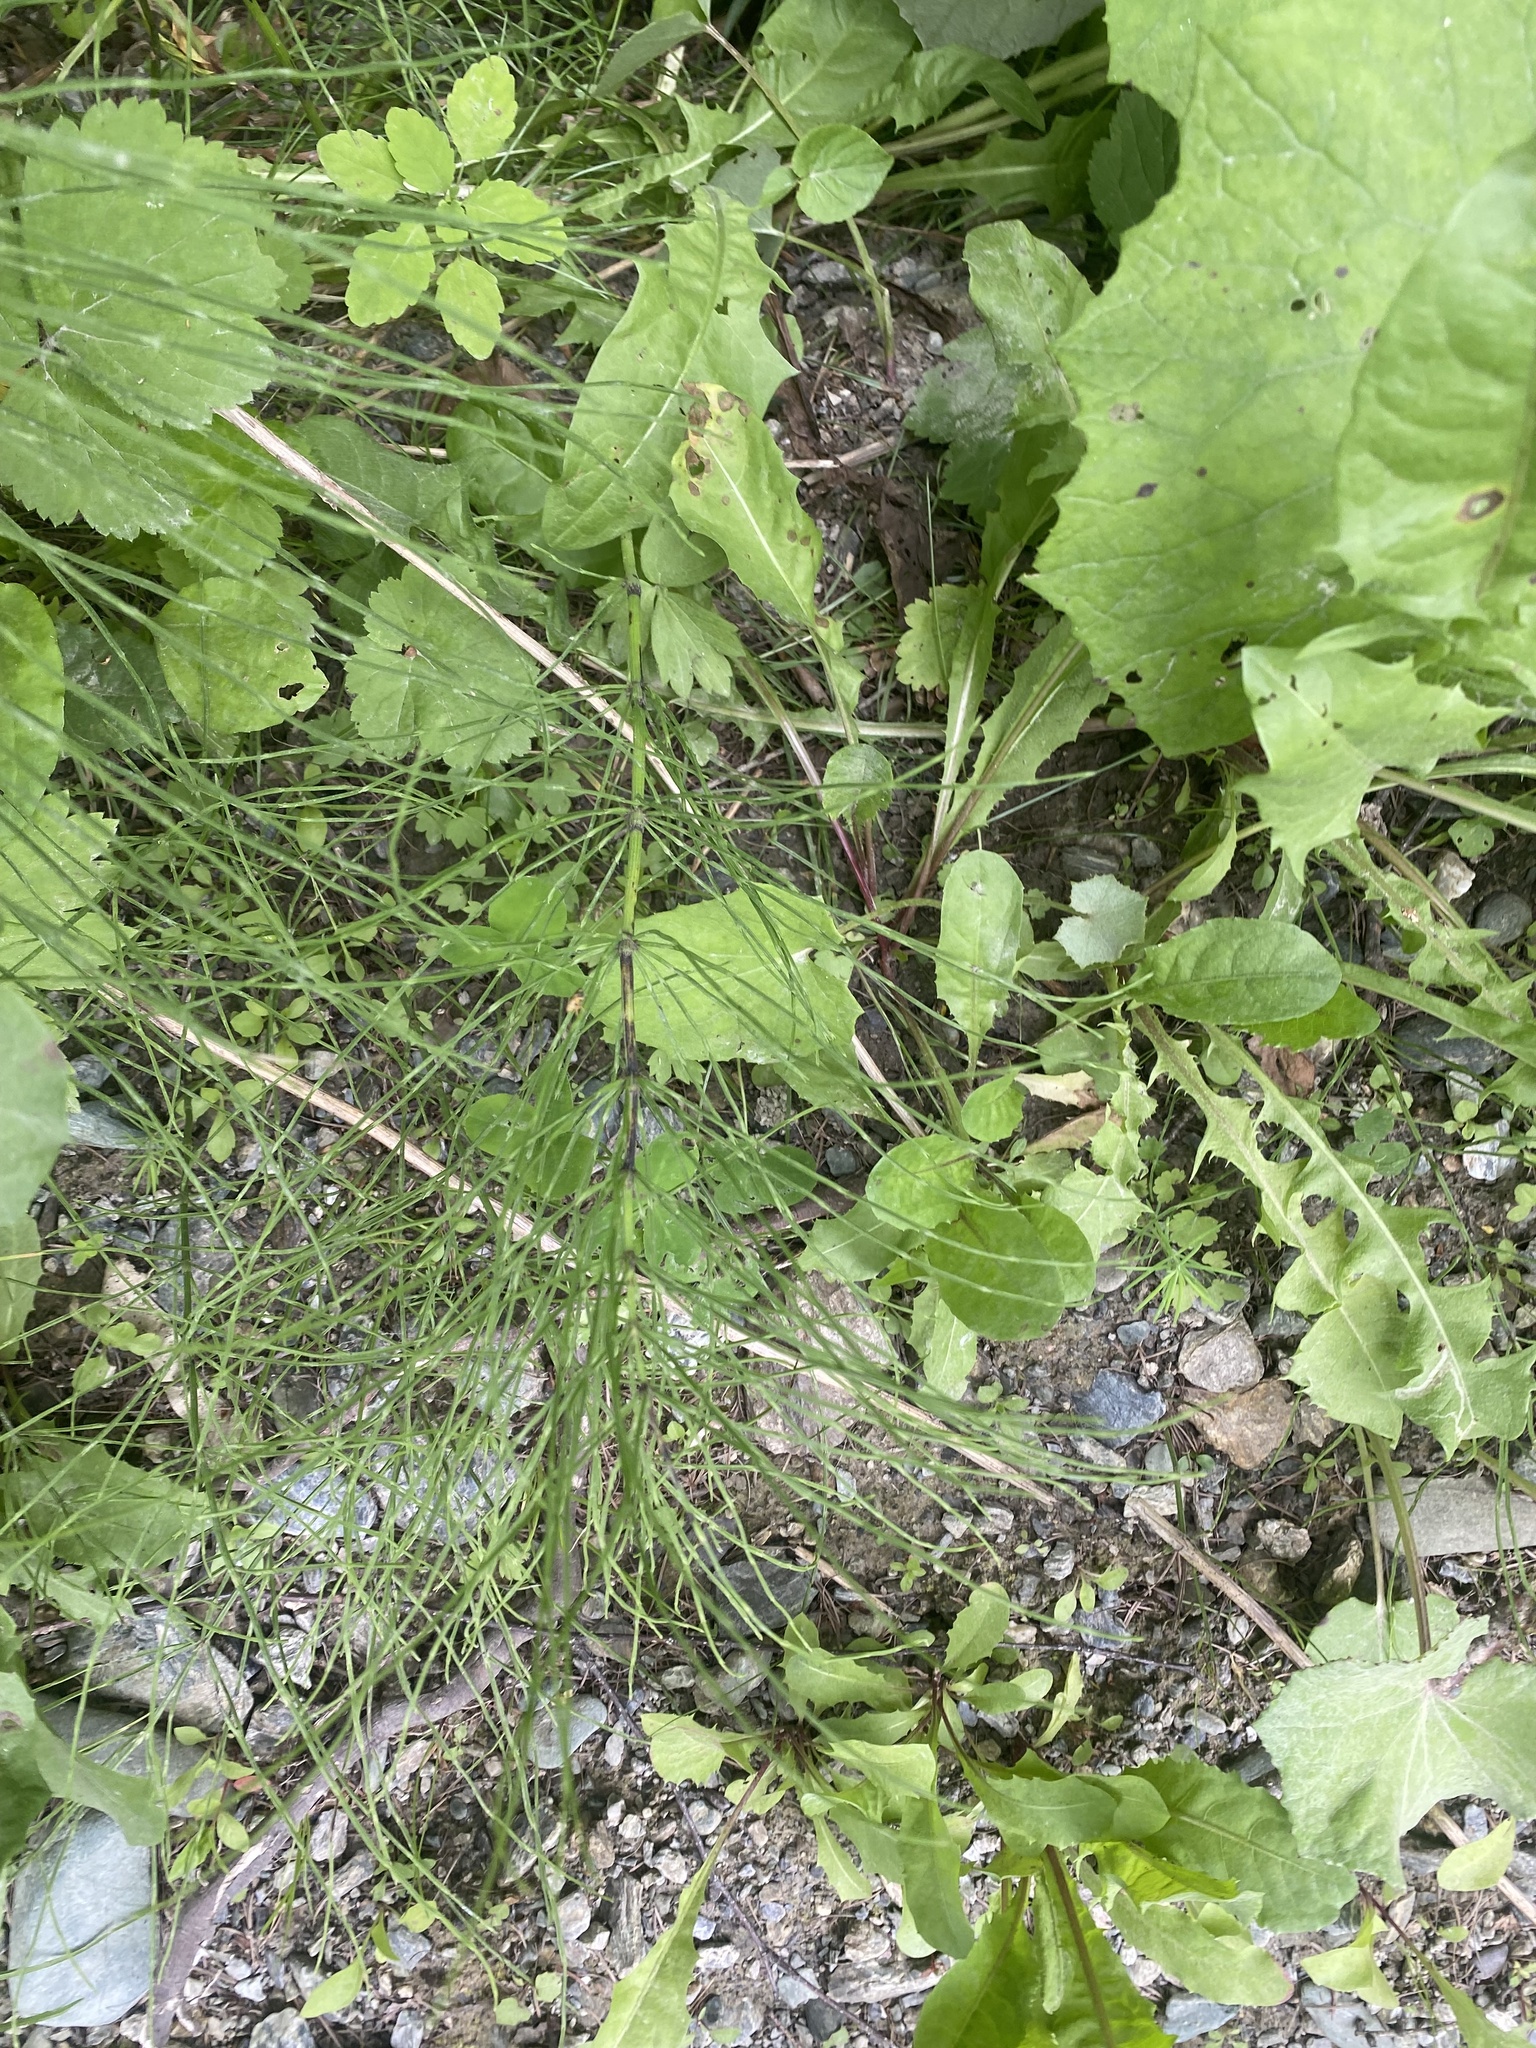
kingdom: Plantae
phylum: Tracheophyta
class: Polypodiopsida
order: Equisetales
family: Equisetaceae
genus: Equisetum
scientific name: Equisetum arvense
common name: Field horsetail
